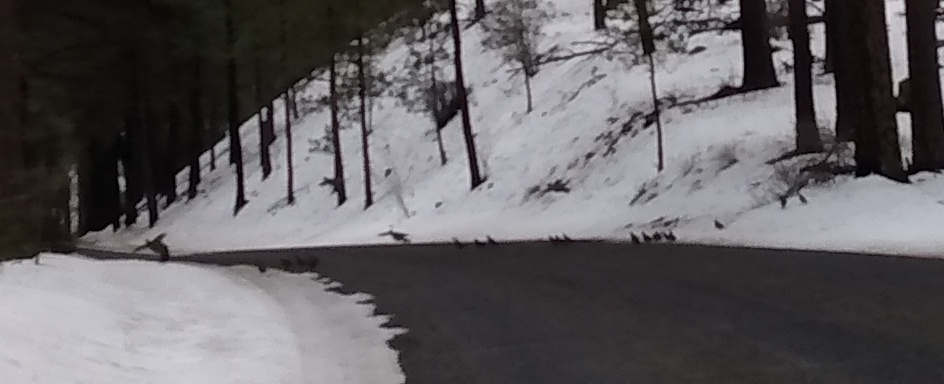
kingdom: Animalia
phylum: Chordata
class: Aves
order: Galliformes
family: Odontophoridae
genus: Callipepla
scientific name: Callipepla californica
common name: California quail
